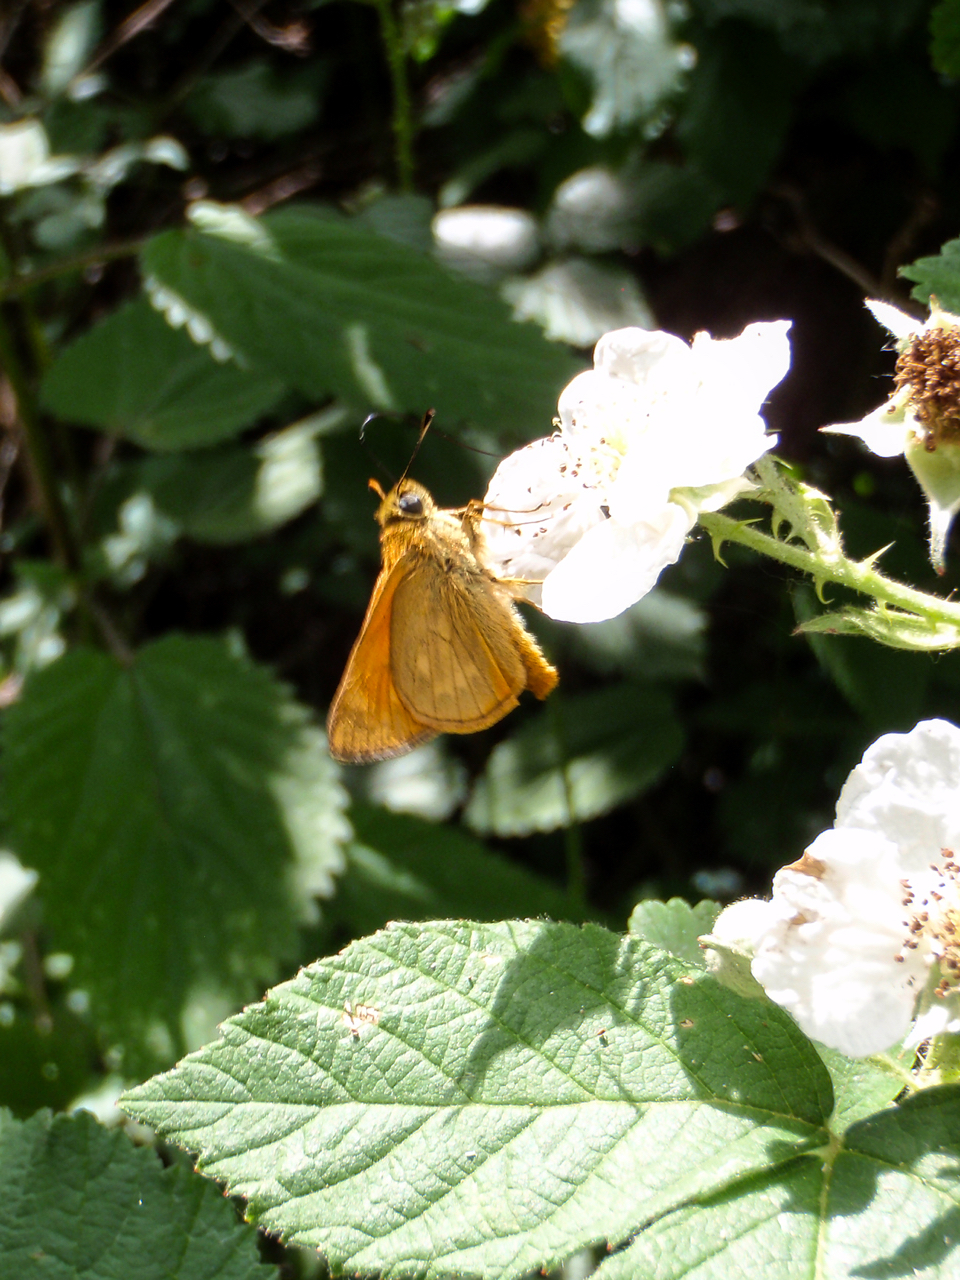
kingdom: Animalia
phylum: Arthropoda
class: Insecta
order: Lepidoptera
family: Hesperiidae
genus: Ochlodes
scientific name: Ochlodes venata
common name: Large skipper
